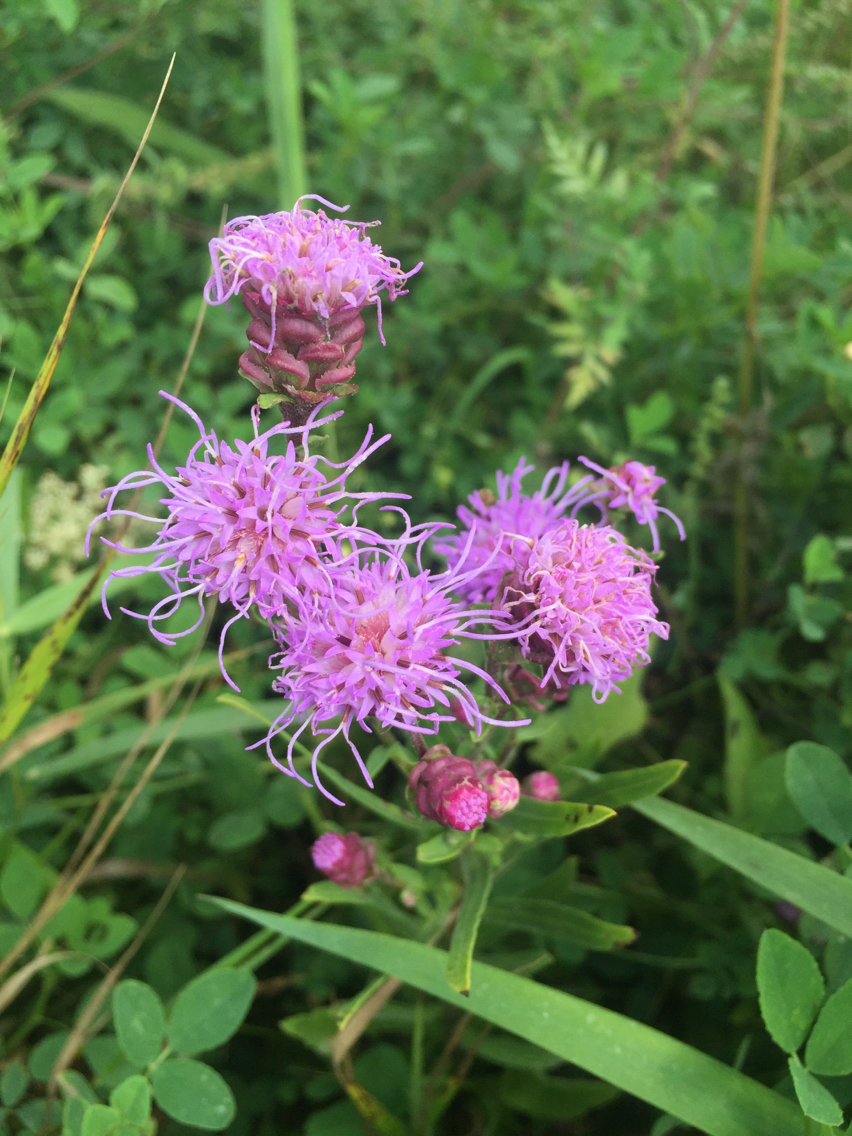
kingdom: Plantae
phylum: Tracheophyta
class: Magnoliopsida
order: Asterales
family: Asteraceae
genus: Liatris
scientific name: Liatris aspera
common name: Lacerate blazing-star
